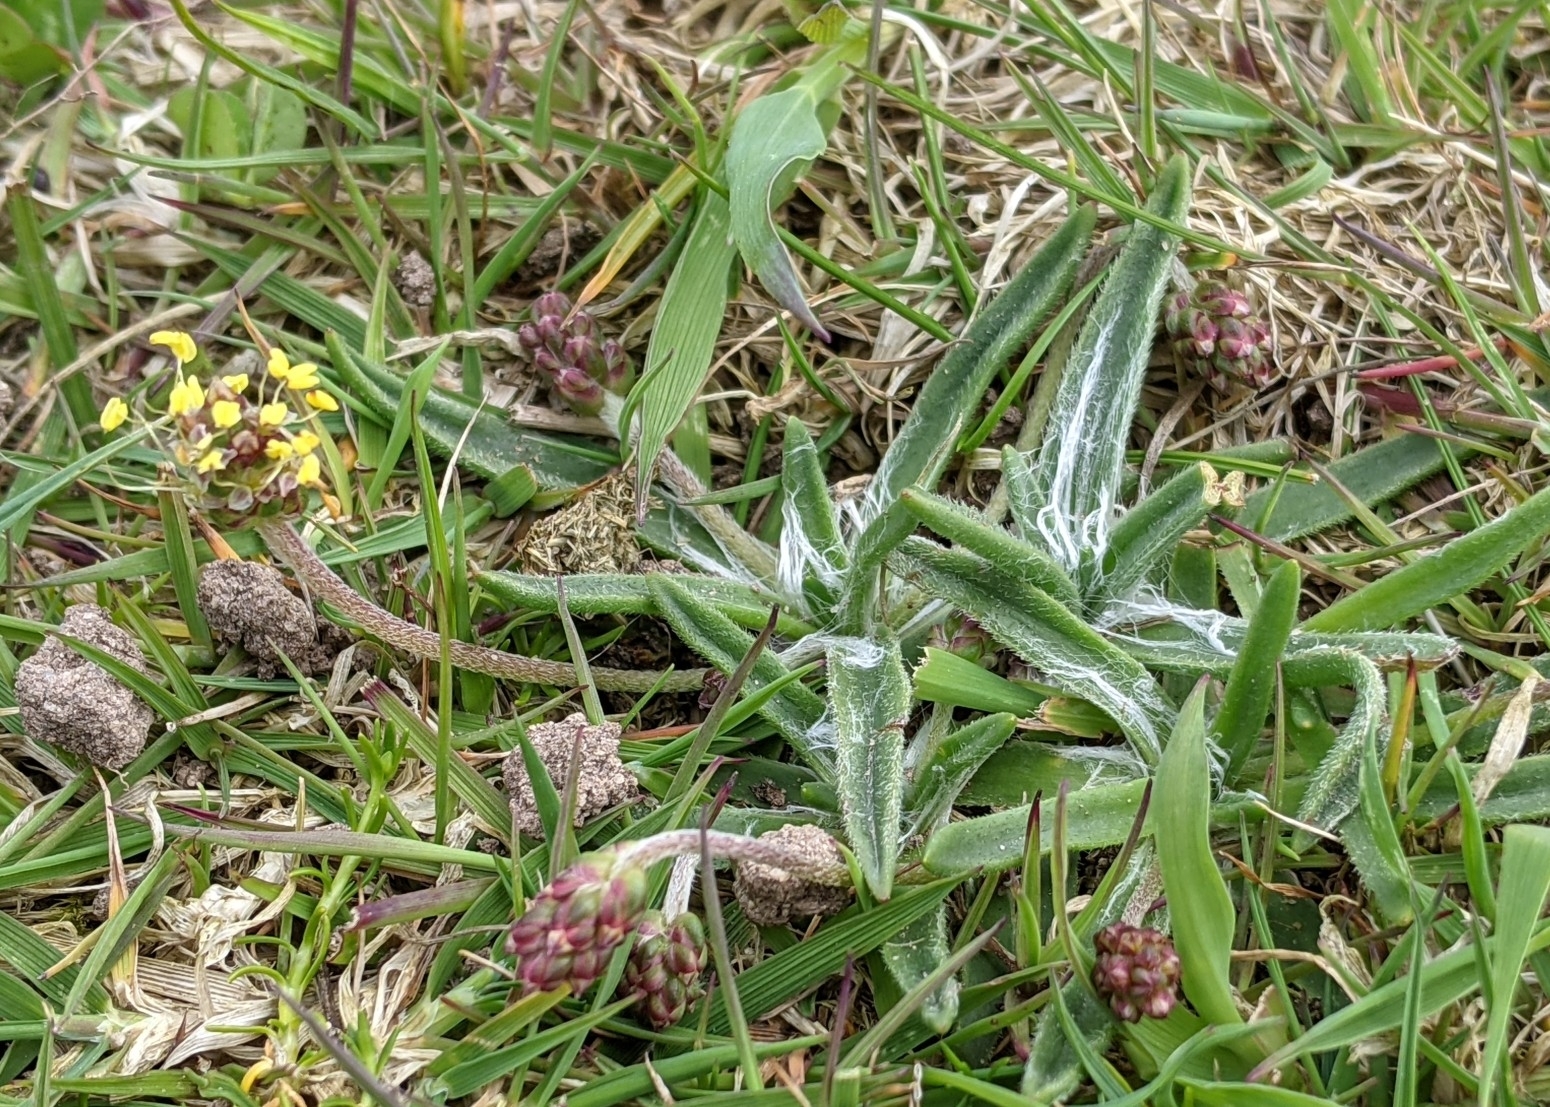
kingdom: Plantae
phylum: Tracheophyta
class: Magnoliopsida
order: Lamiales
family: Plantaginaceae
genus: Plantago
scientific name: Plantago maritima
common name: Sea plantain
